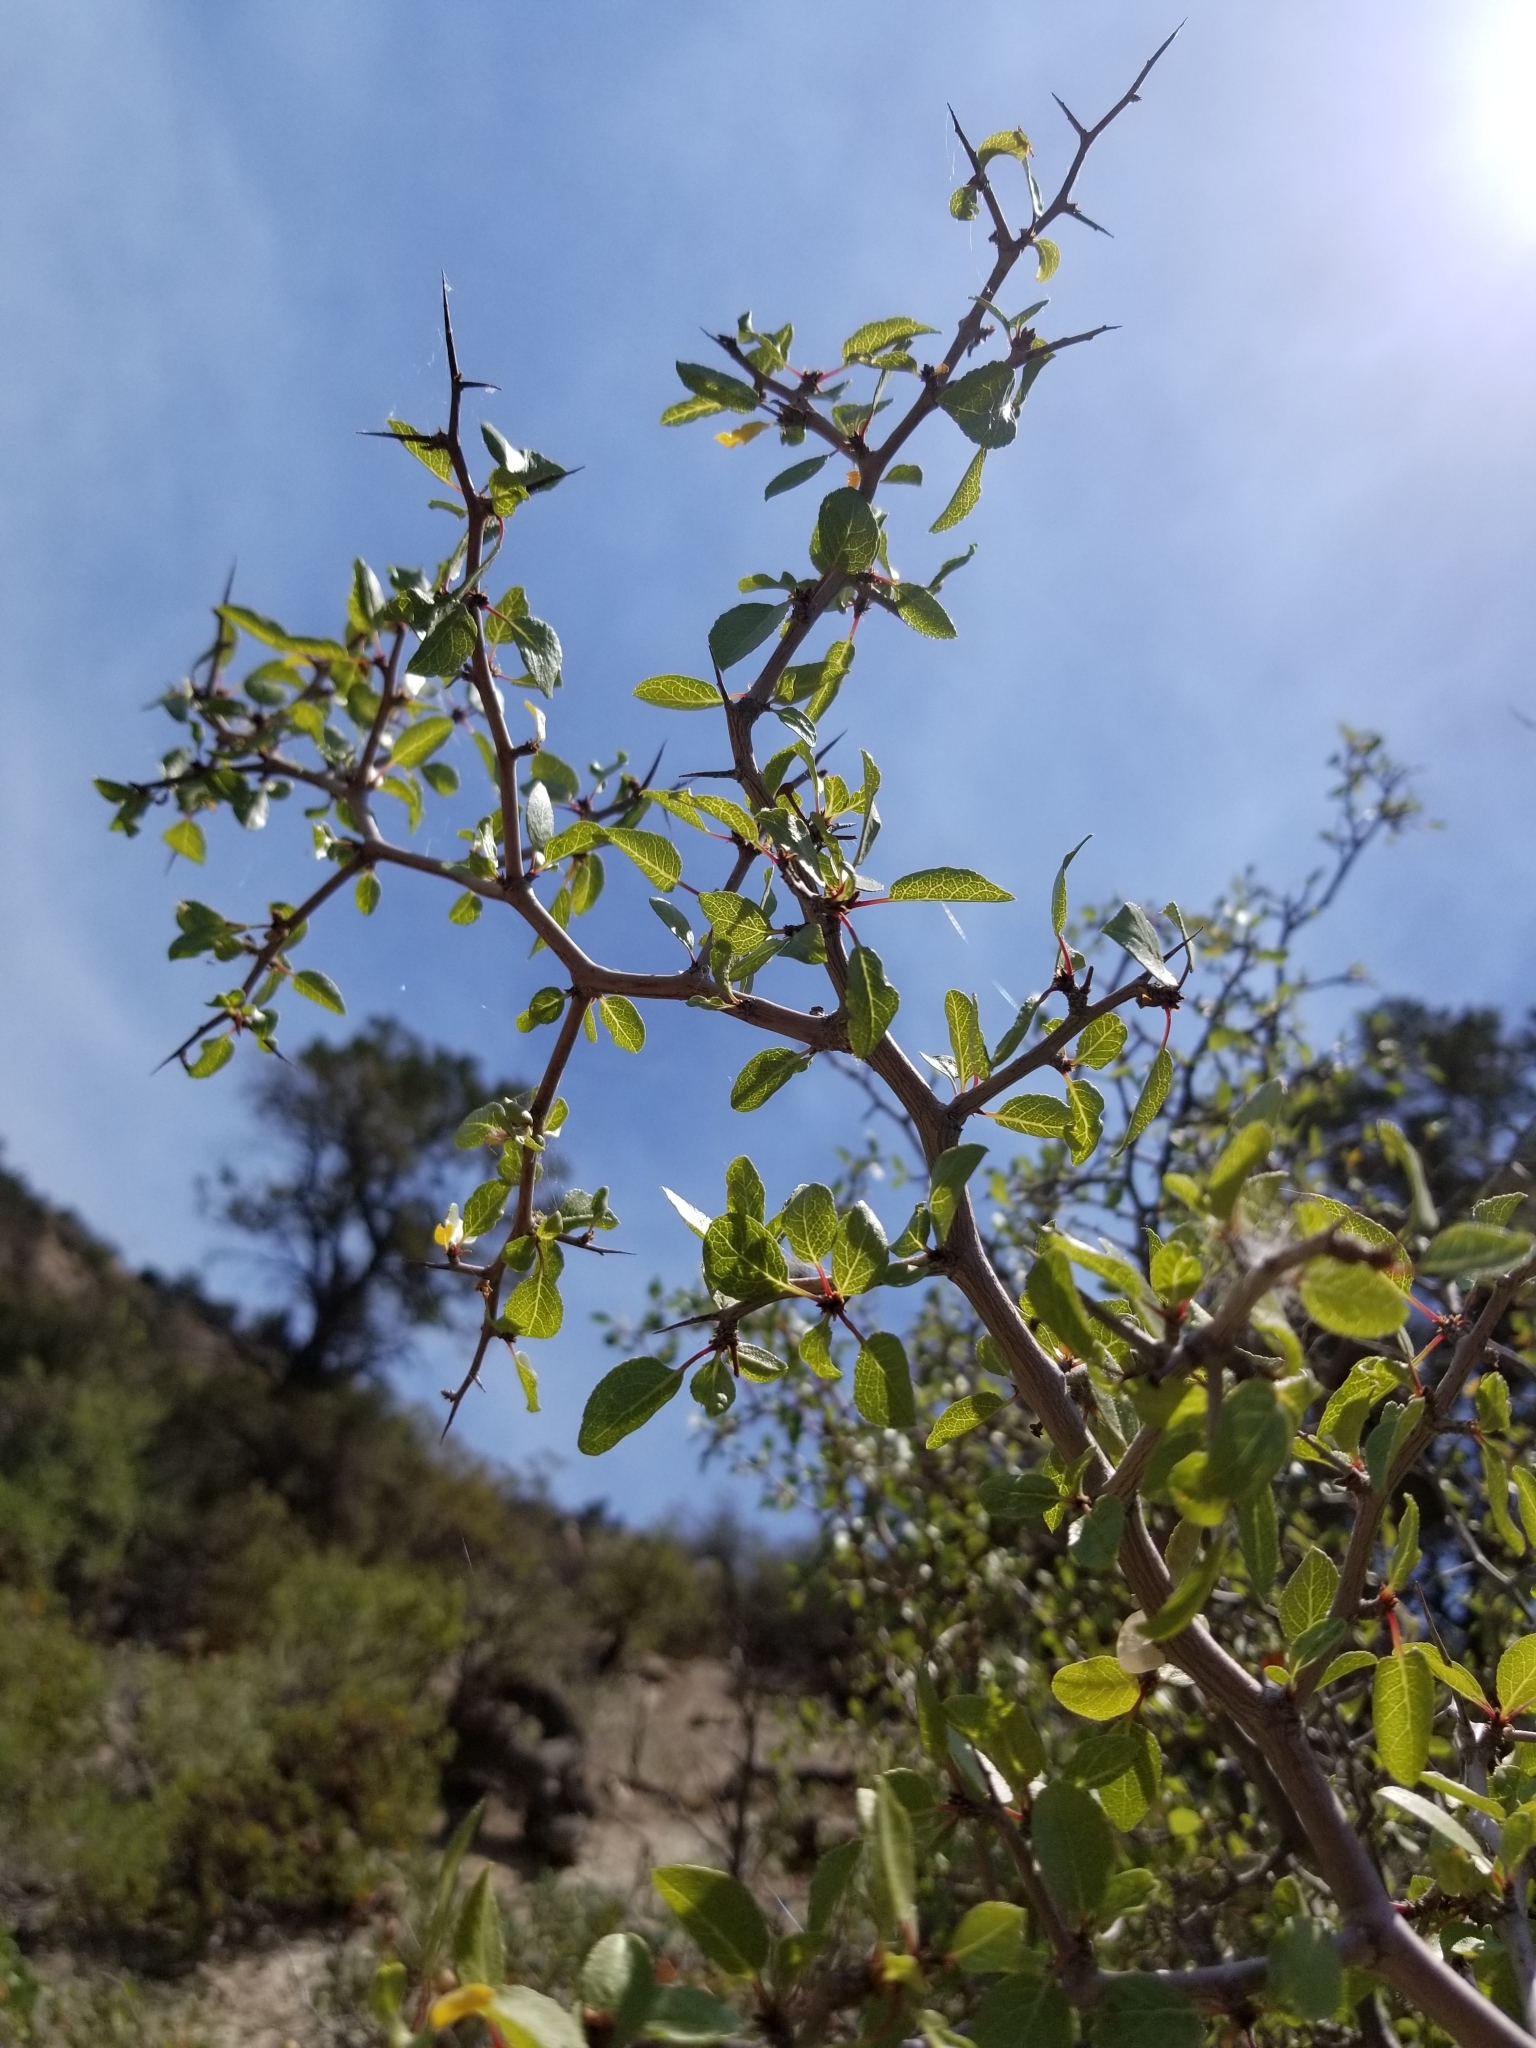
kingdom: Plantae
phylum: Tracheophyta
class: Magnoliopsida
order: Rosales
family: Rosaceae
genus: Prunus
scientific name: Prunus fremontii
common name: Desert apricot
